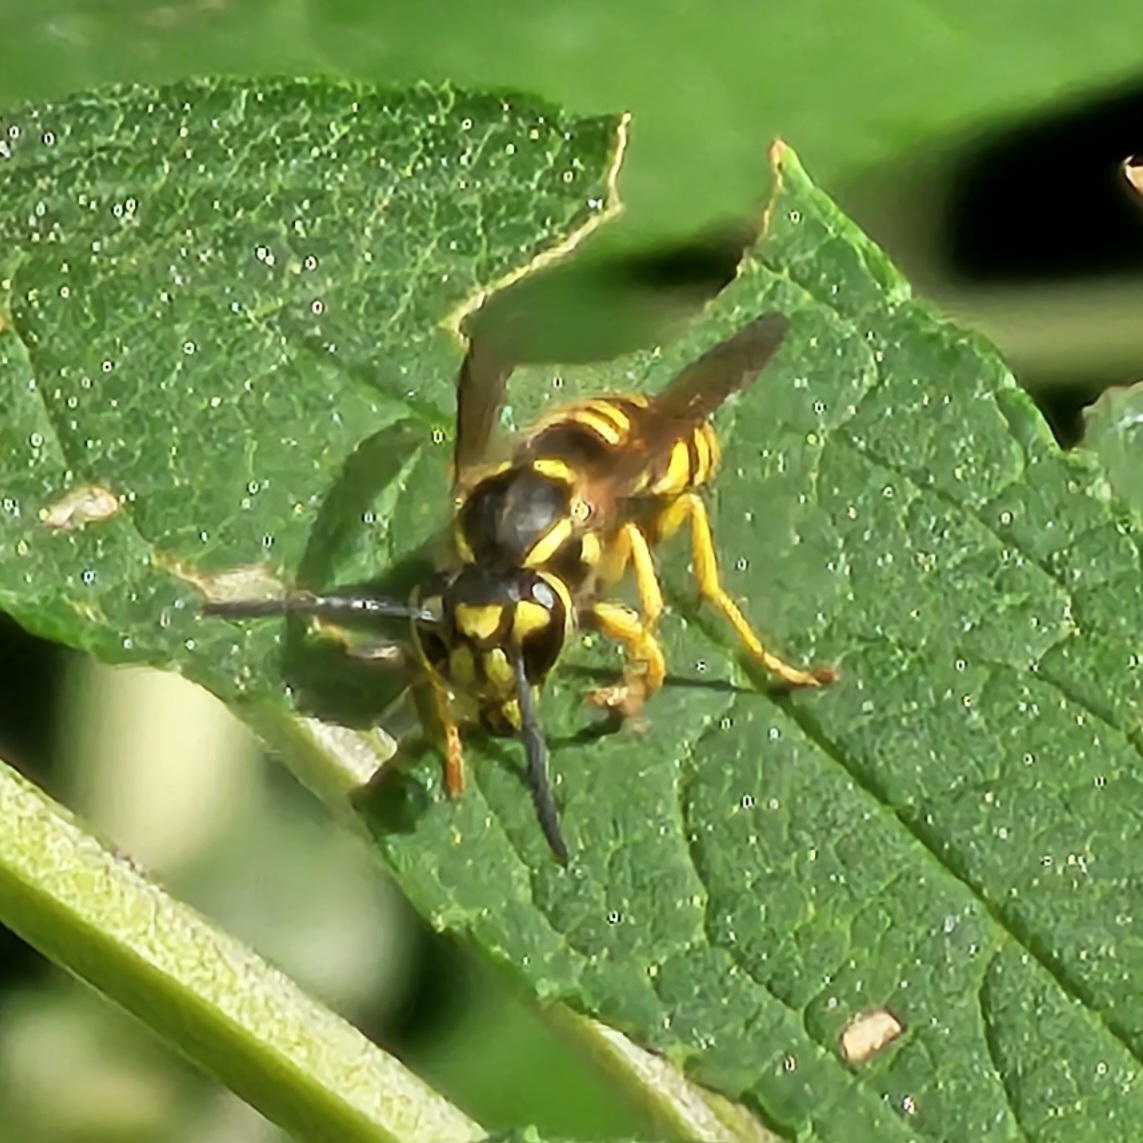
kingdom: Animalia
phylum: Arthropoda
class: Insecta
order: Hymenoptera
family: Vespidae
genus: Vespula
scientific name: Vespula maculifrons
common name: Eastern yellowjacket
